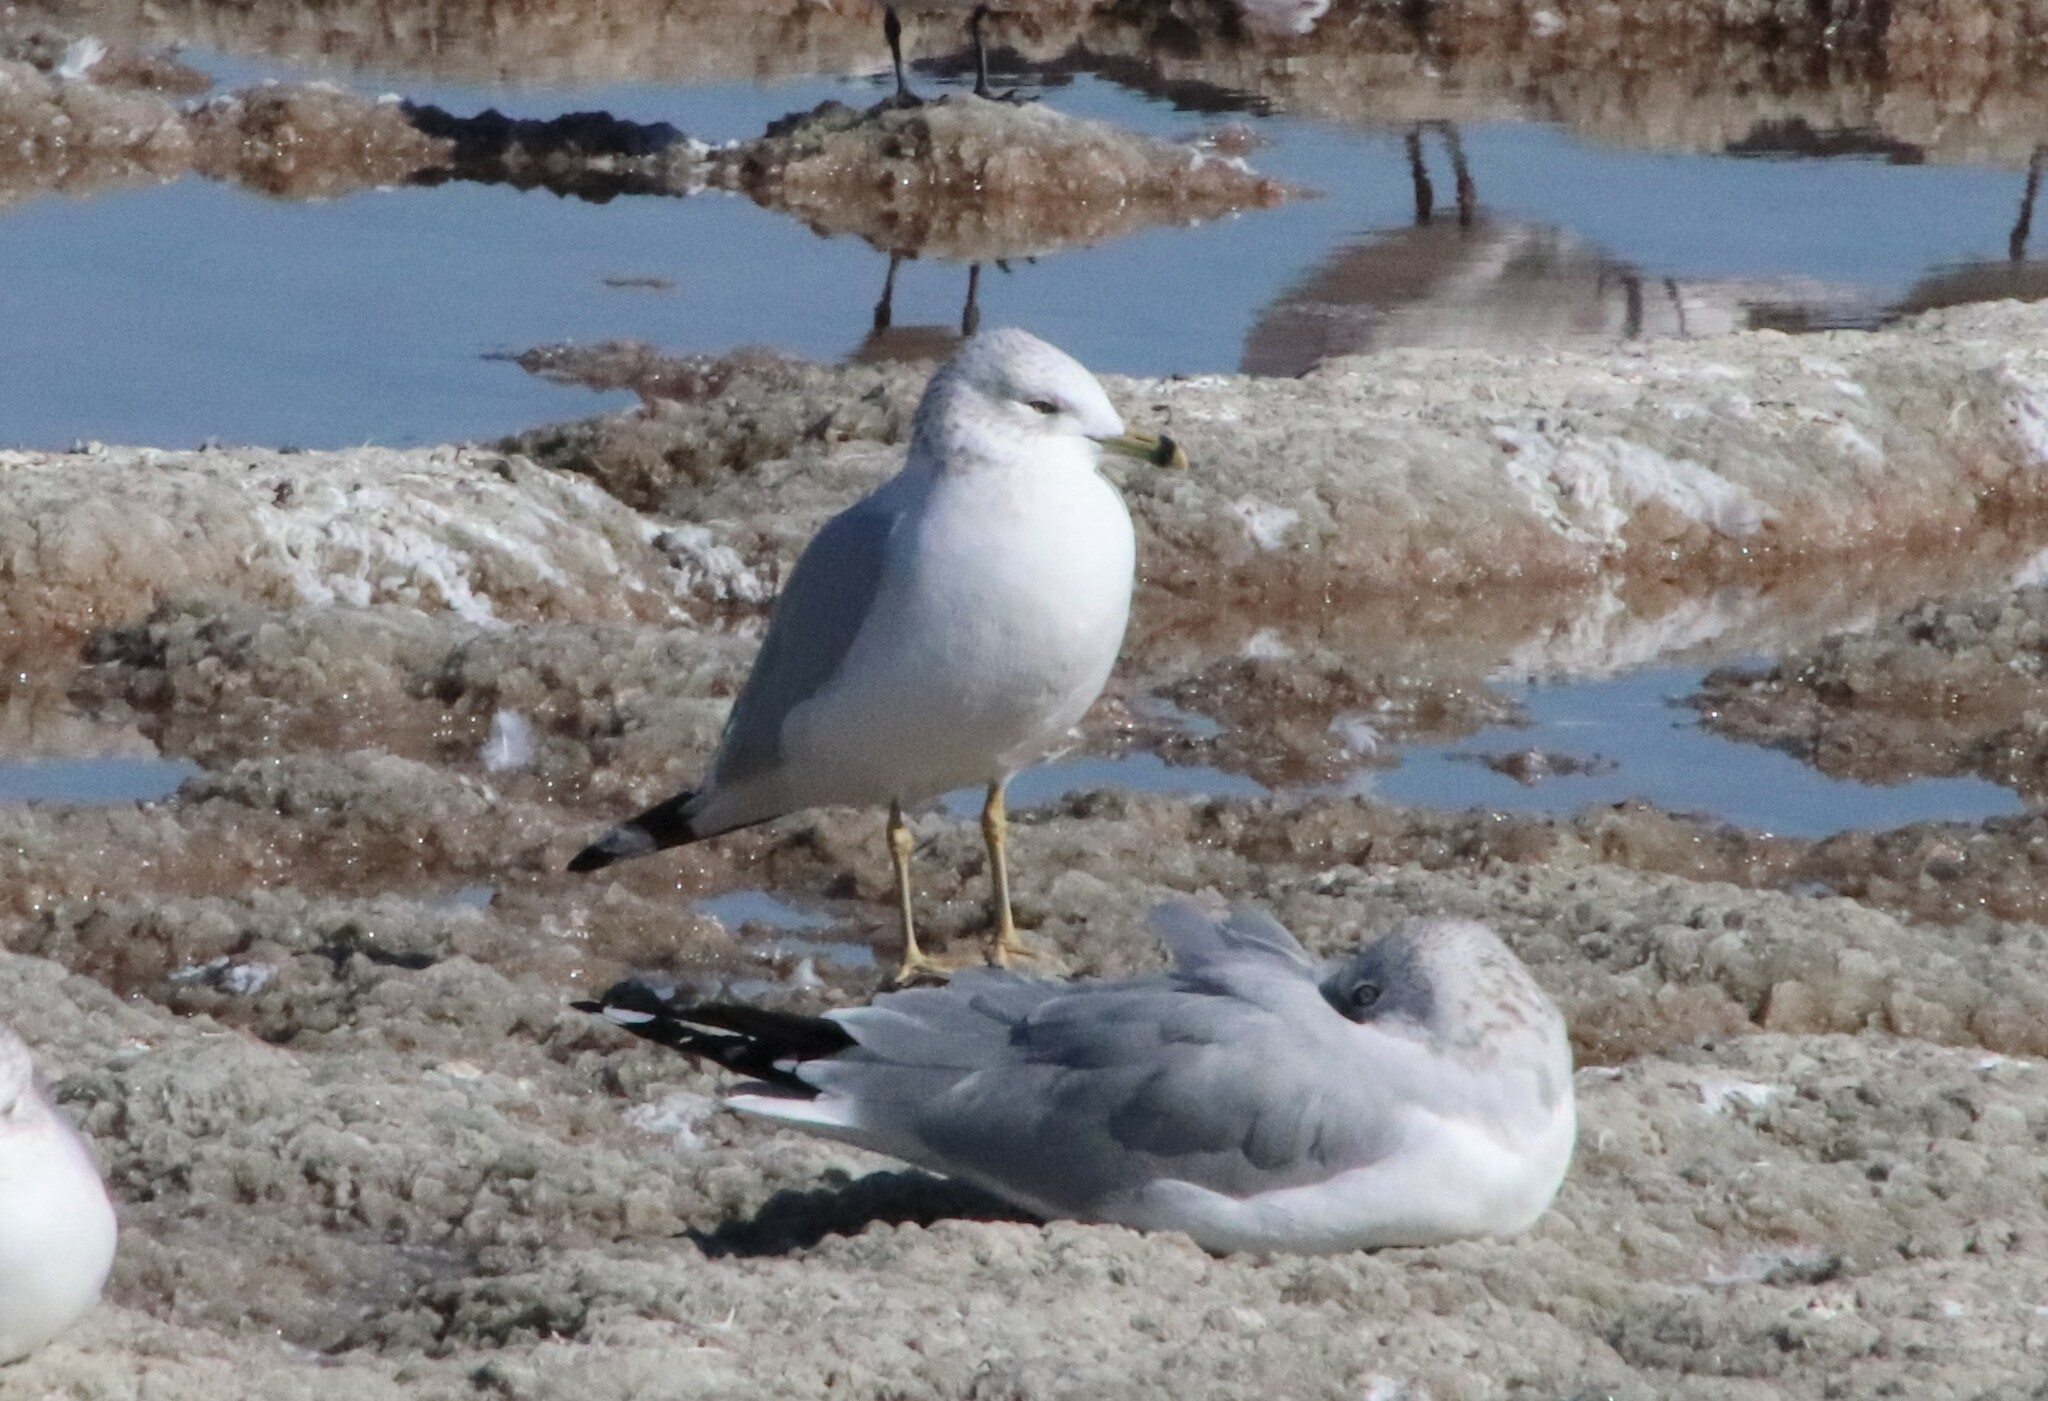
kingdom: Animalia
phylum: Chordata
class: Aves
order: Charadriiformes
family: Laridae
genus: Larus
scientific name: Larus delawarensis
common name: Ring-billed gull
